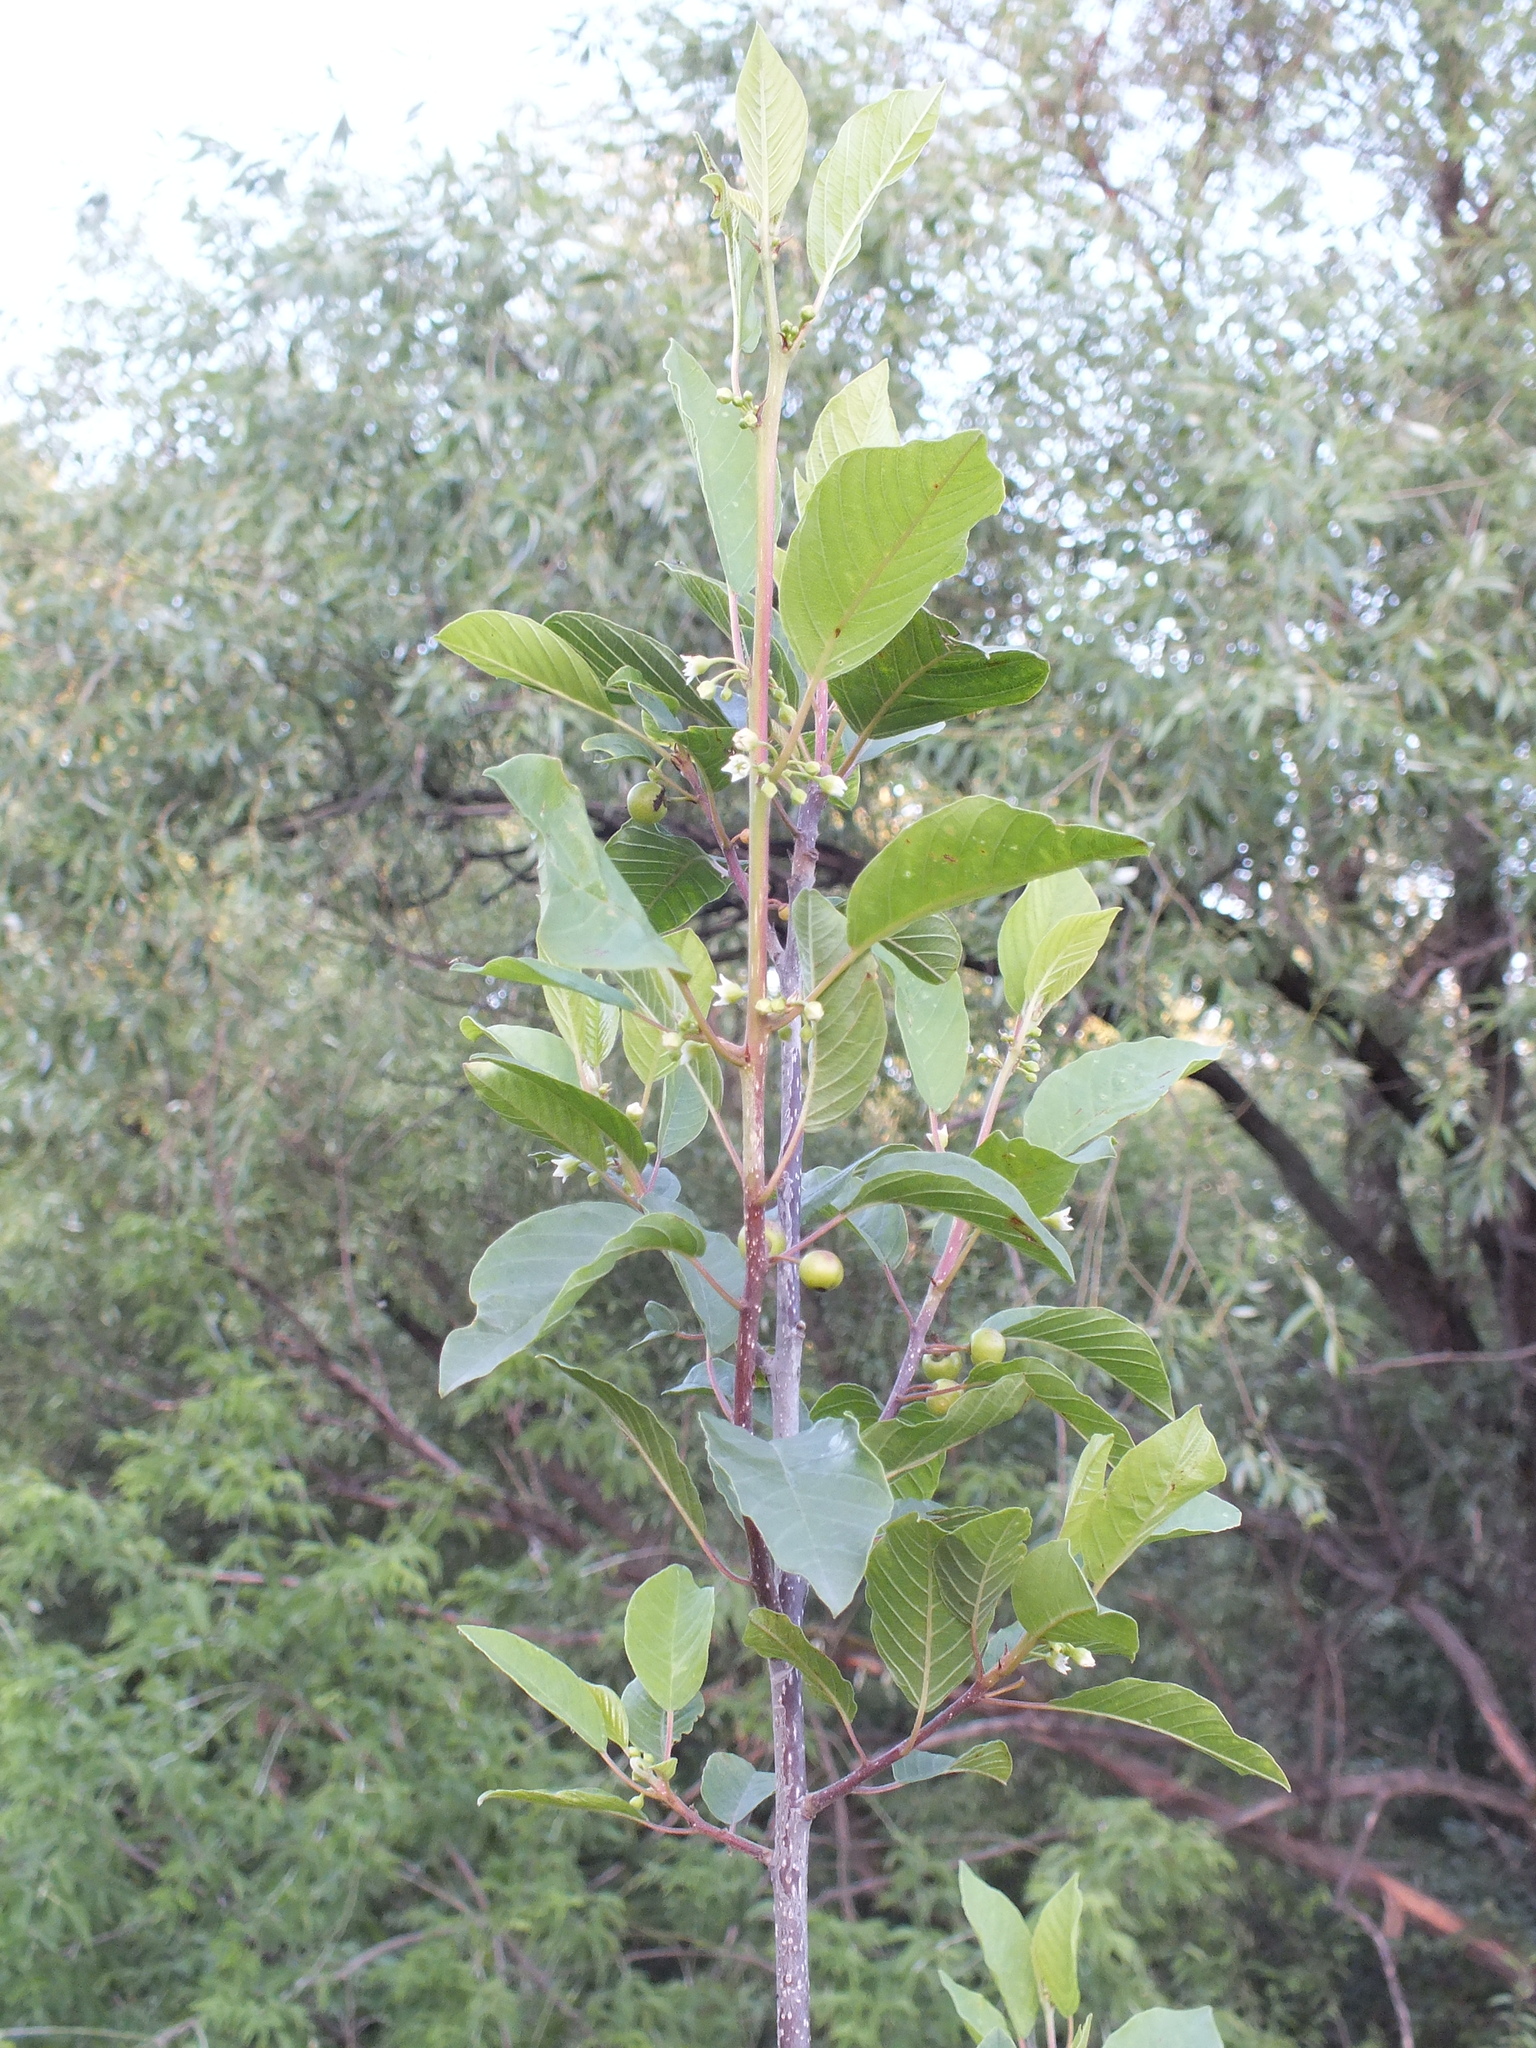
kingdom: Plantae
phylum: Tracheophyta
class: Magnoliopsida
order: Rosales
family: Rhamnaceae
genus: Frangula
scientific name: Frangula alnus
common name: Alder buckthorn
